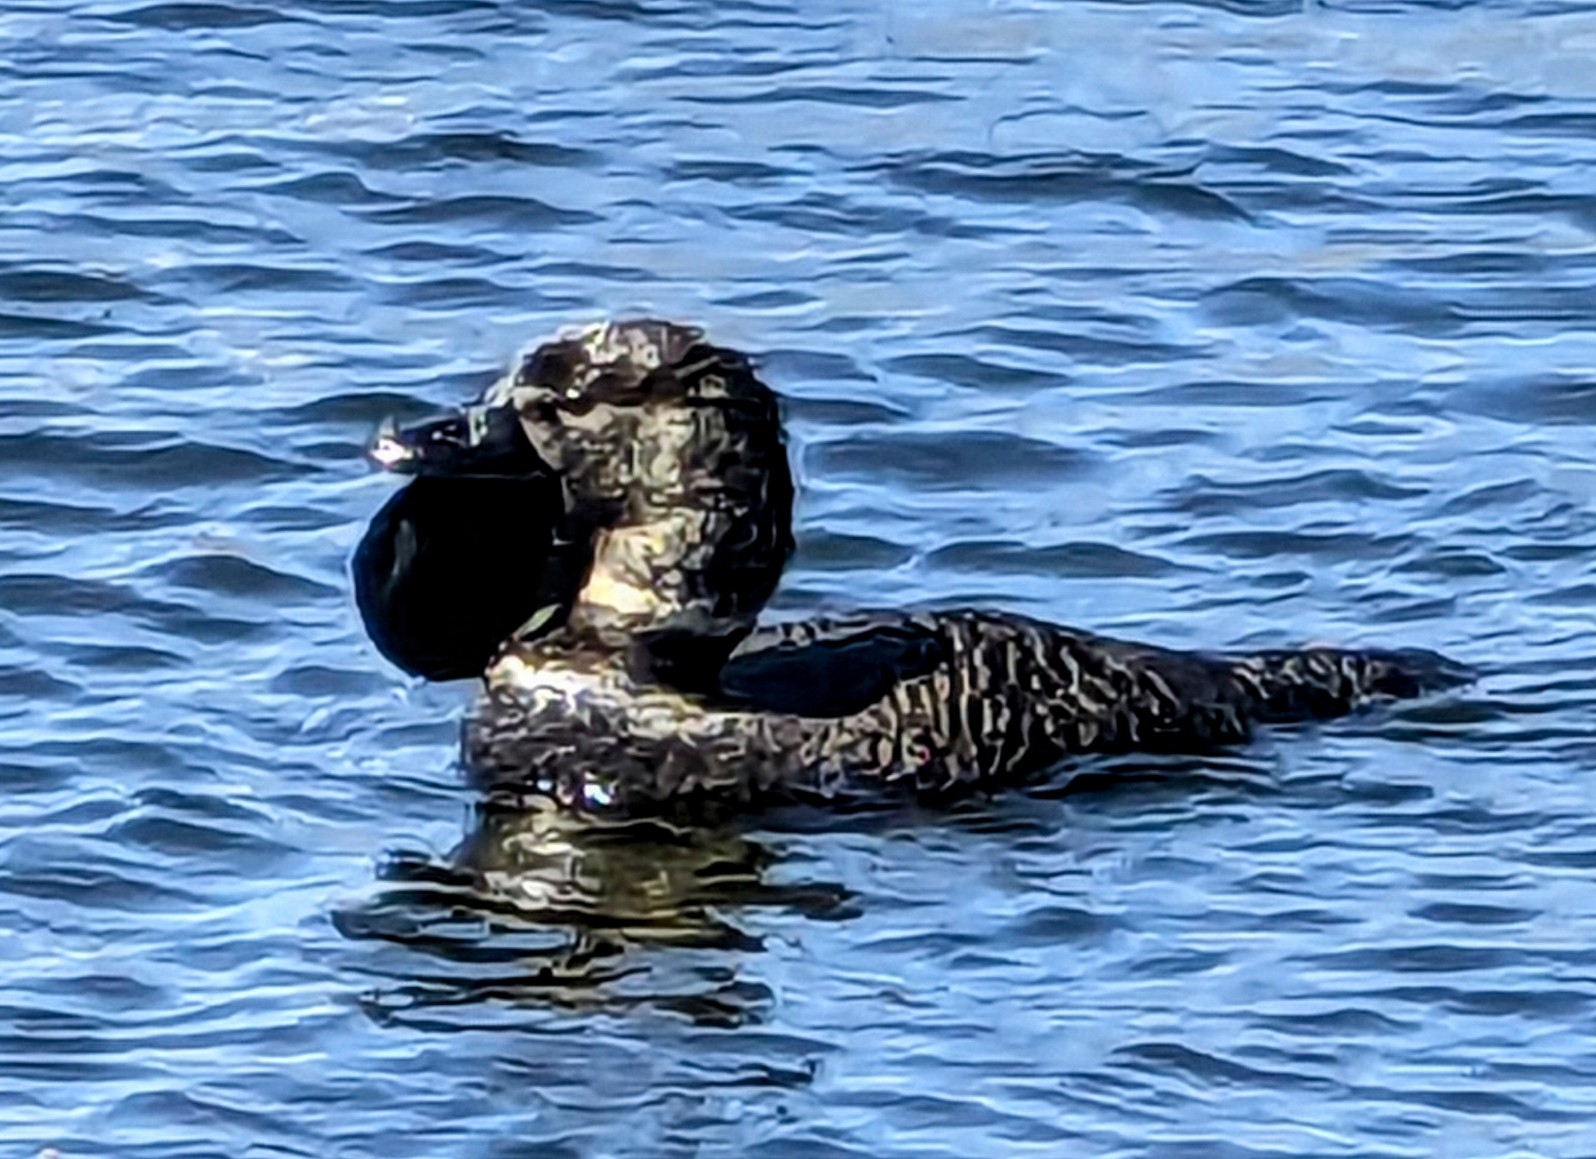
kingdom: Animalia
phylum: Chordata
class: Aves
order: Anseriformes
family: Anatidae
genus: Biziura
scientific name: Biziura lobata
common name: Musk duck
